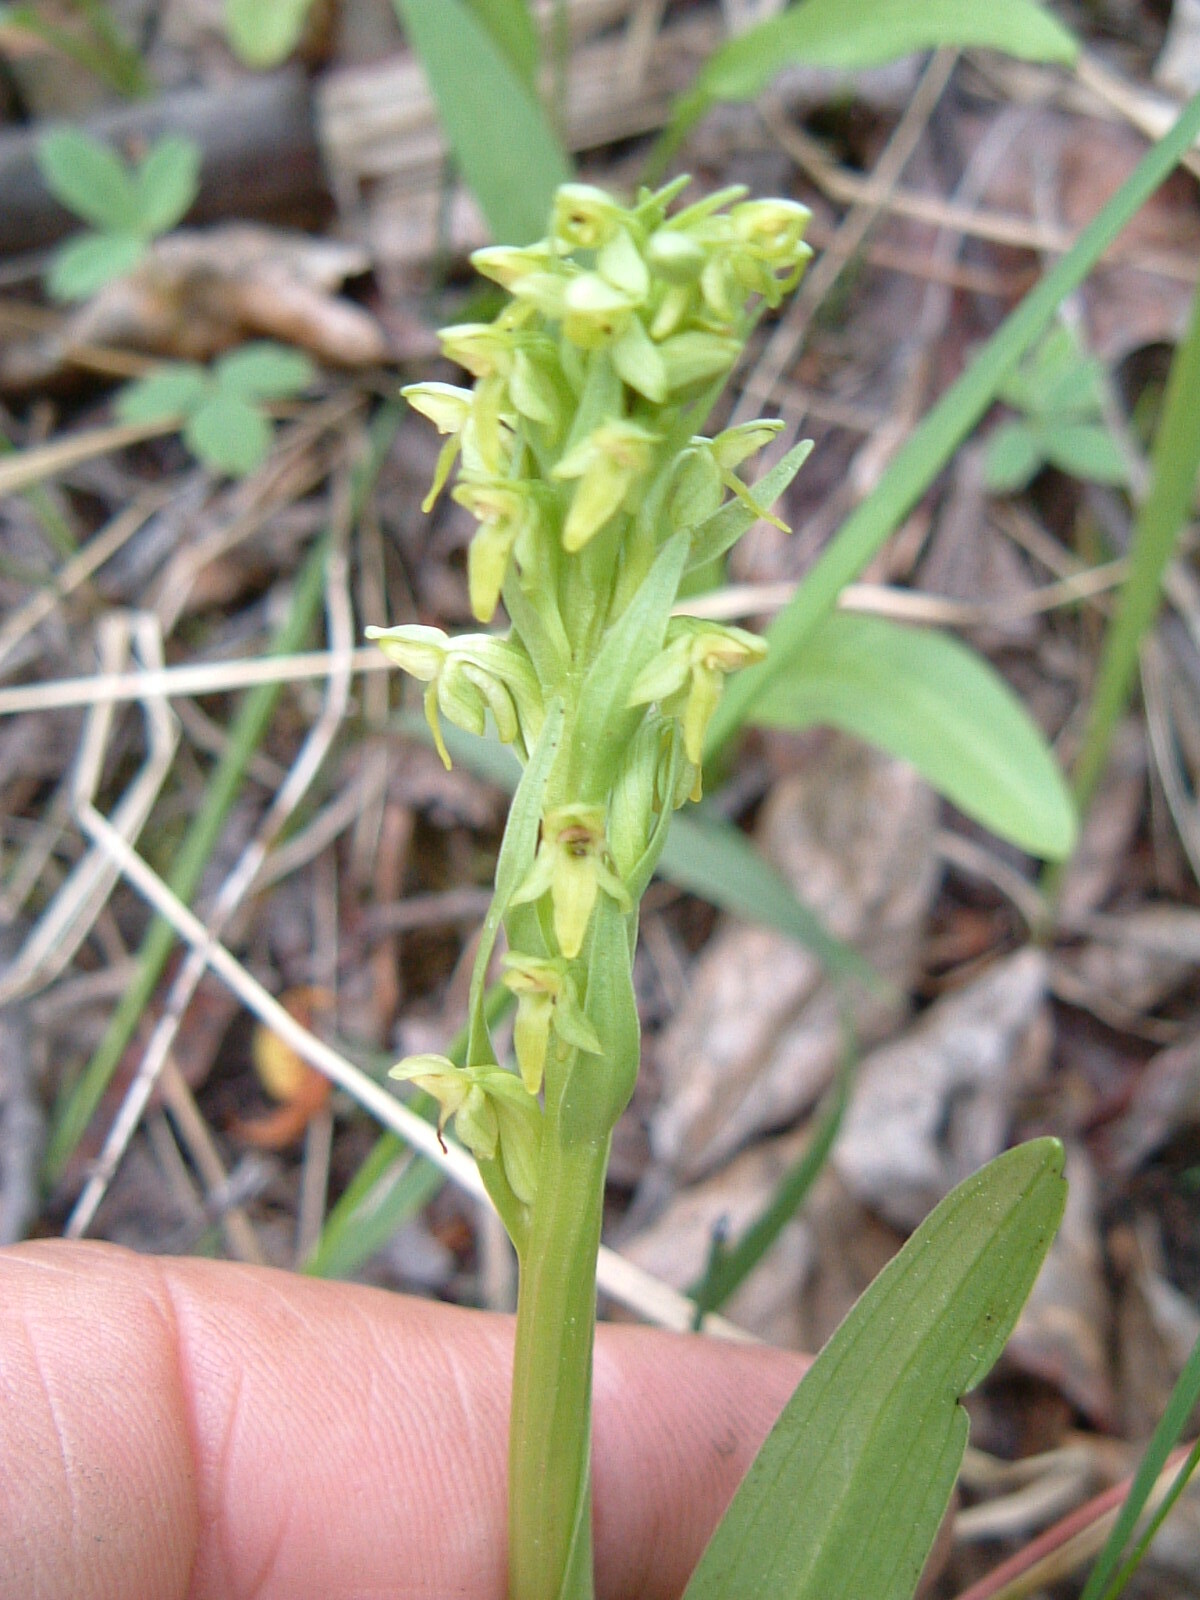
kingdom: Plantae
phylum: Tracheophyta
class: Liliopsida
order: Asparagales
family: Orchidaceae
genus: Platanthera
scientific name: Platanthera aquilonis
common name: Northern green orchid
